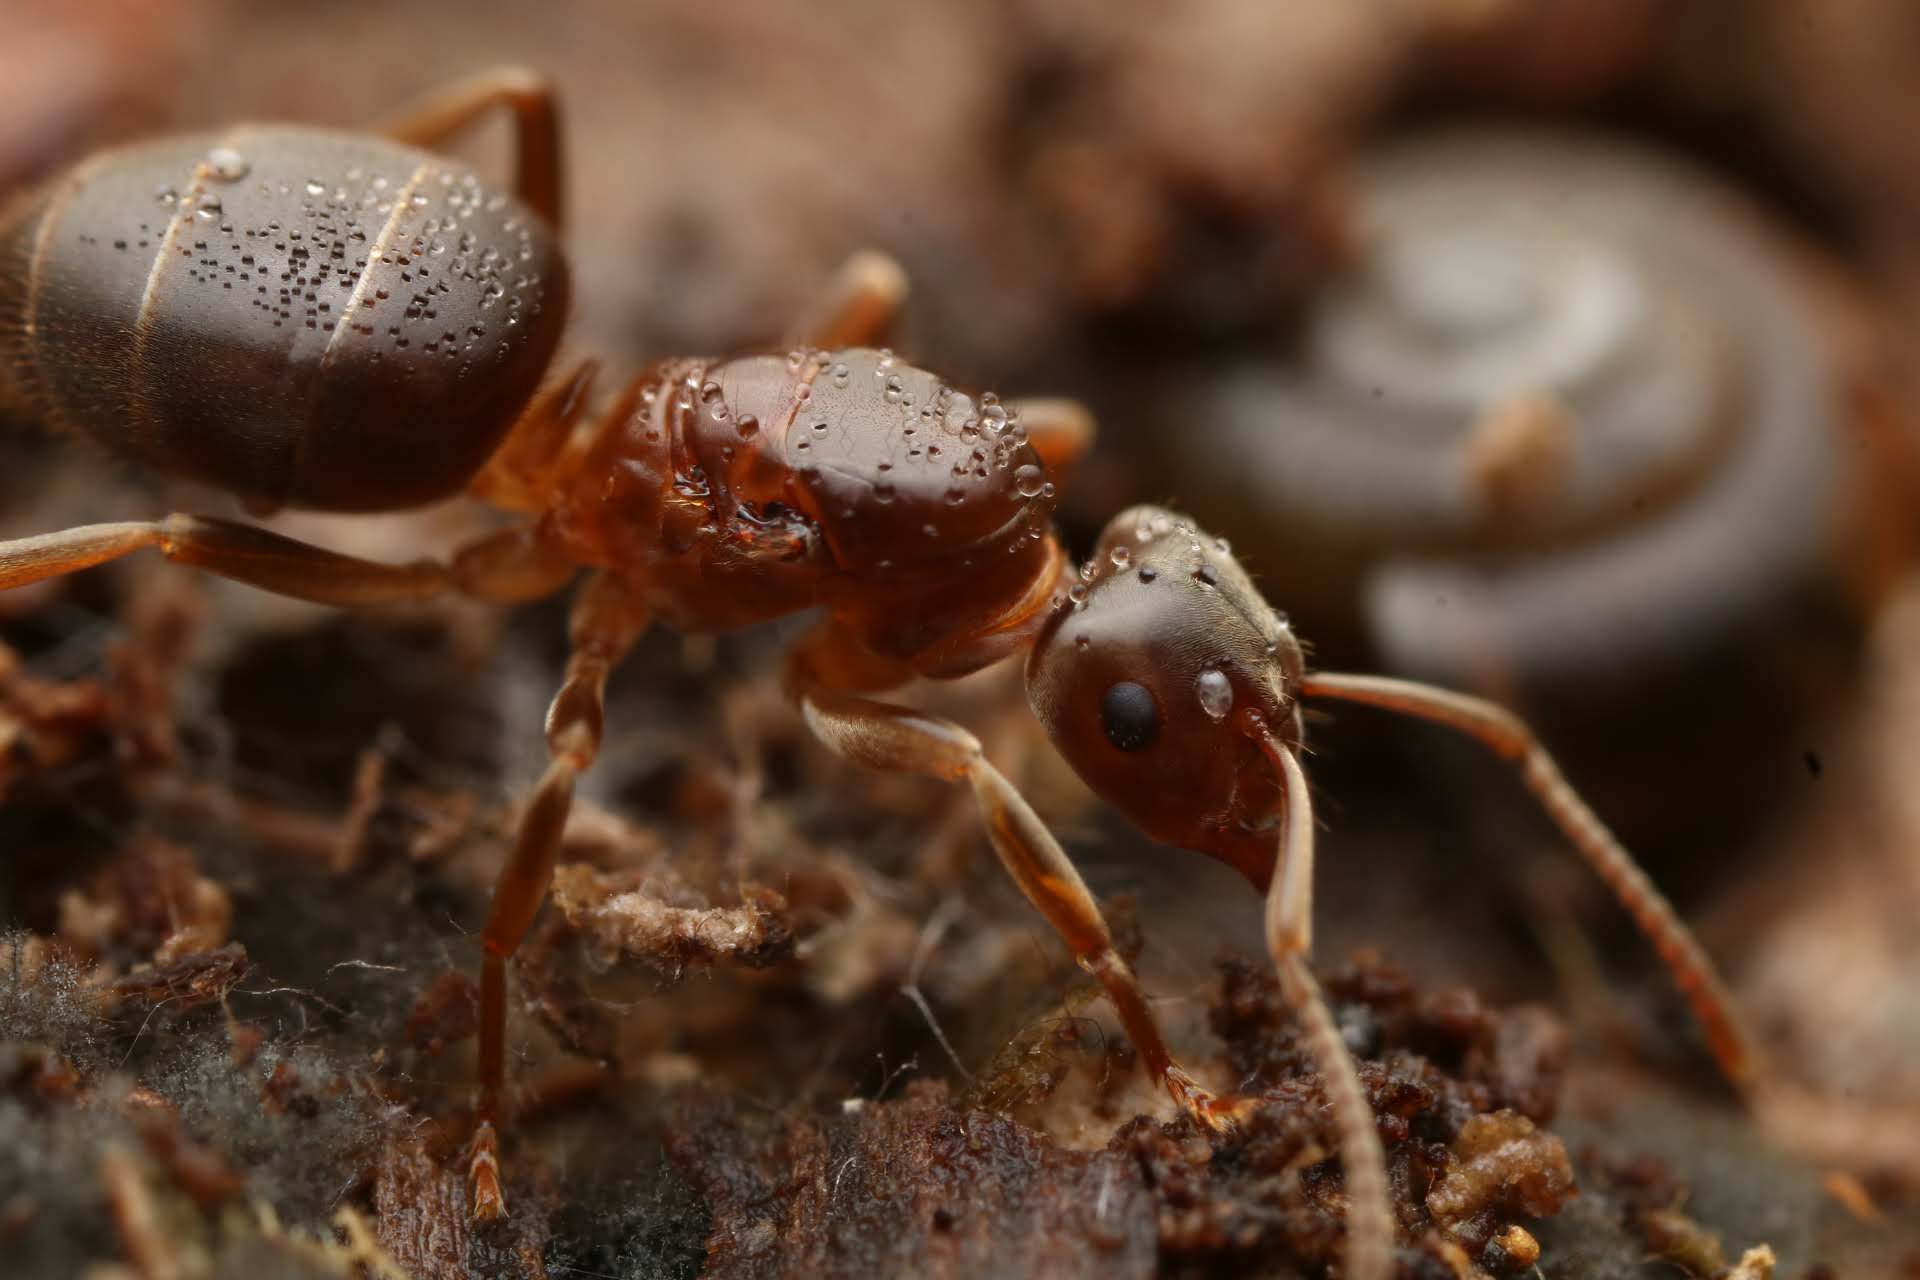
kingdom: Animalia
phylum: Arthropoda
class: Insecta
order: Hymenoptera
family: Formicidae
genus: Lasius
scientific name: Lasius aphidicola
